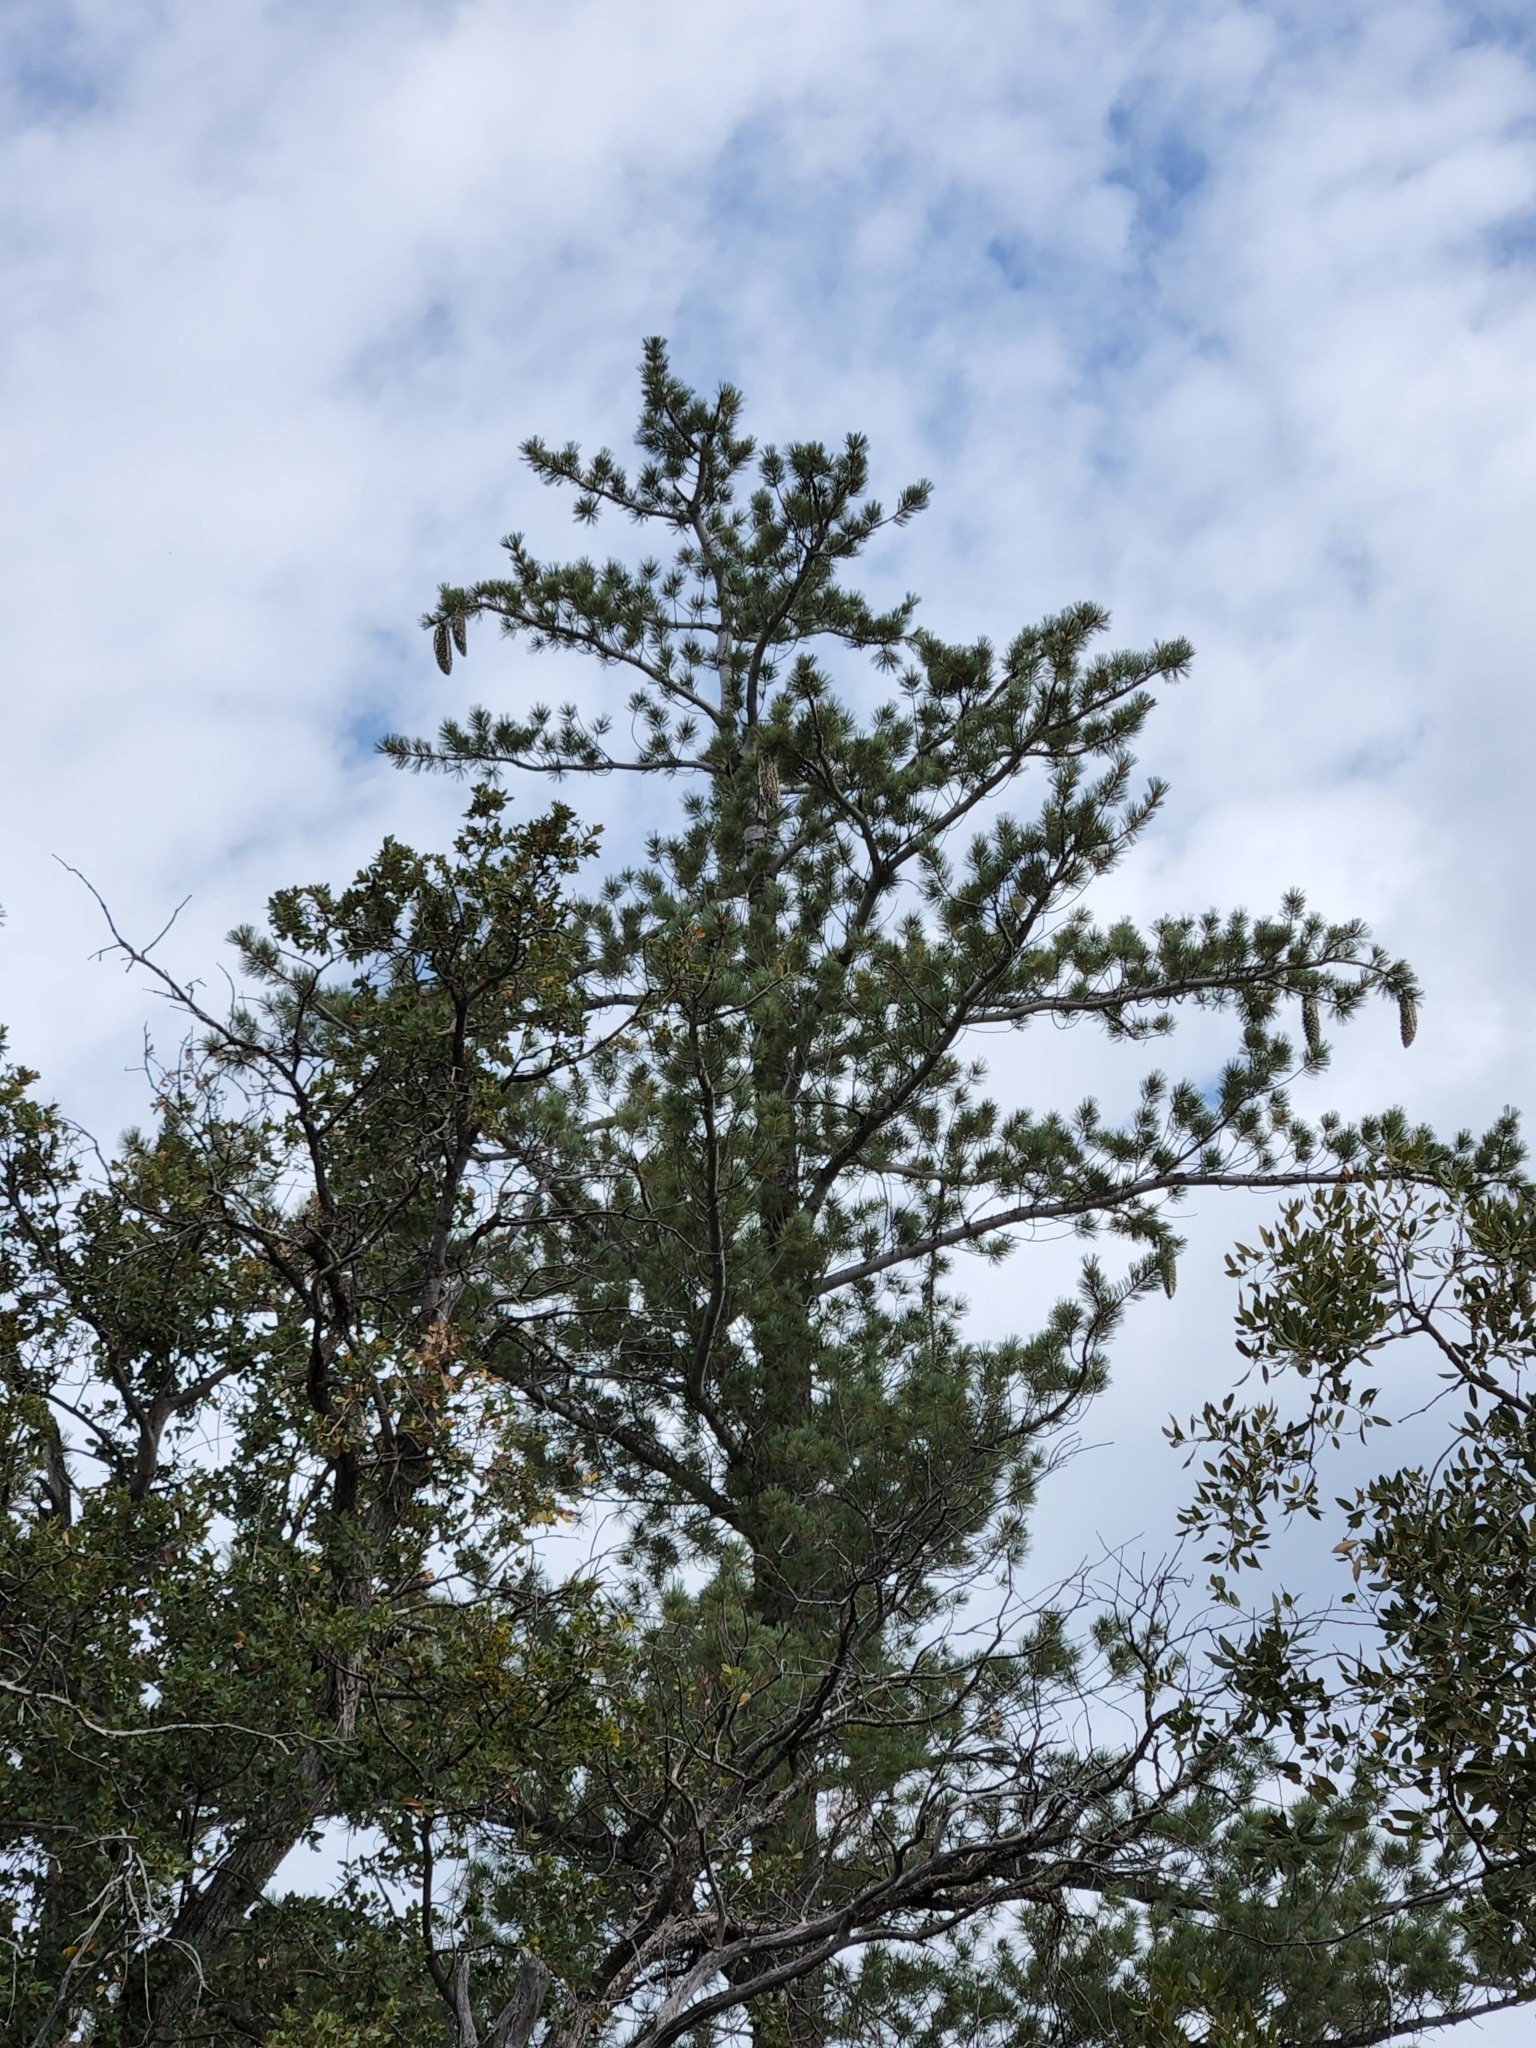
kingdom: Plantae
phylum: Tracheophyta
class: Pinopsida
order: Pinales
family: Pinaceae
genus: Pinus
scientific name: Pinus lambertiana
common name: Sugar pine
